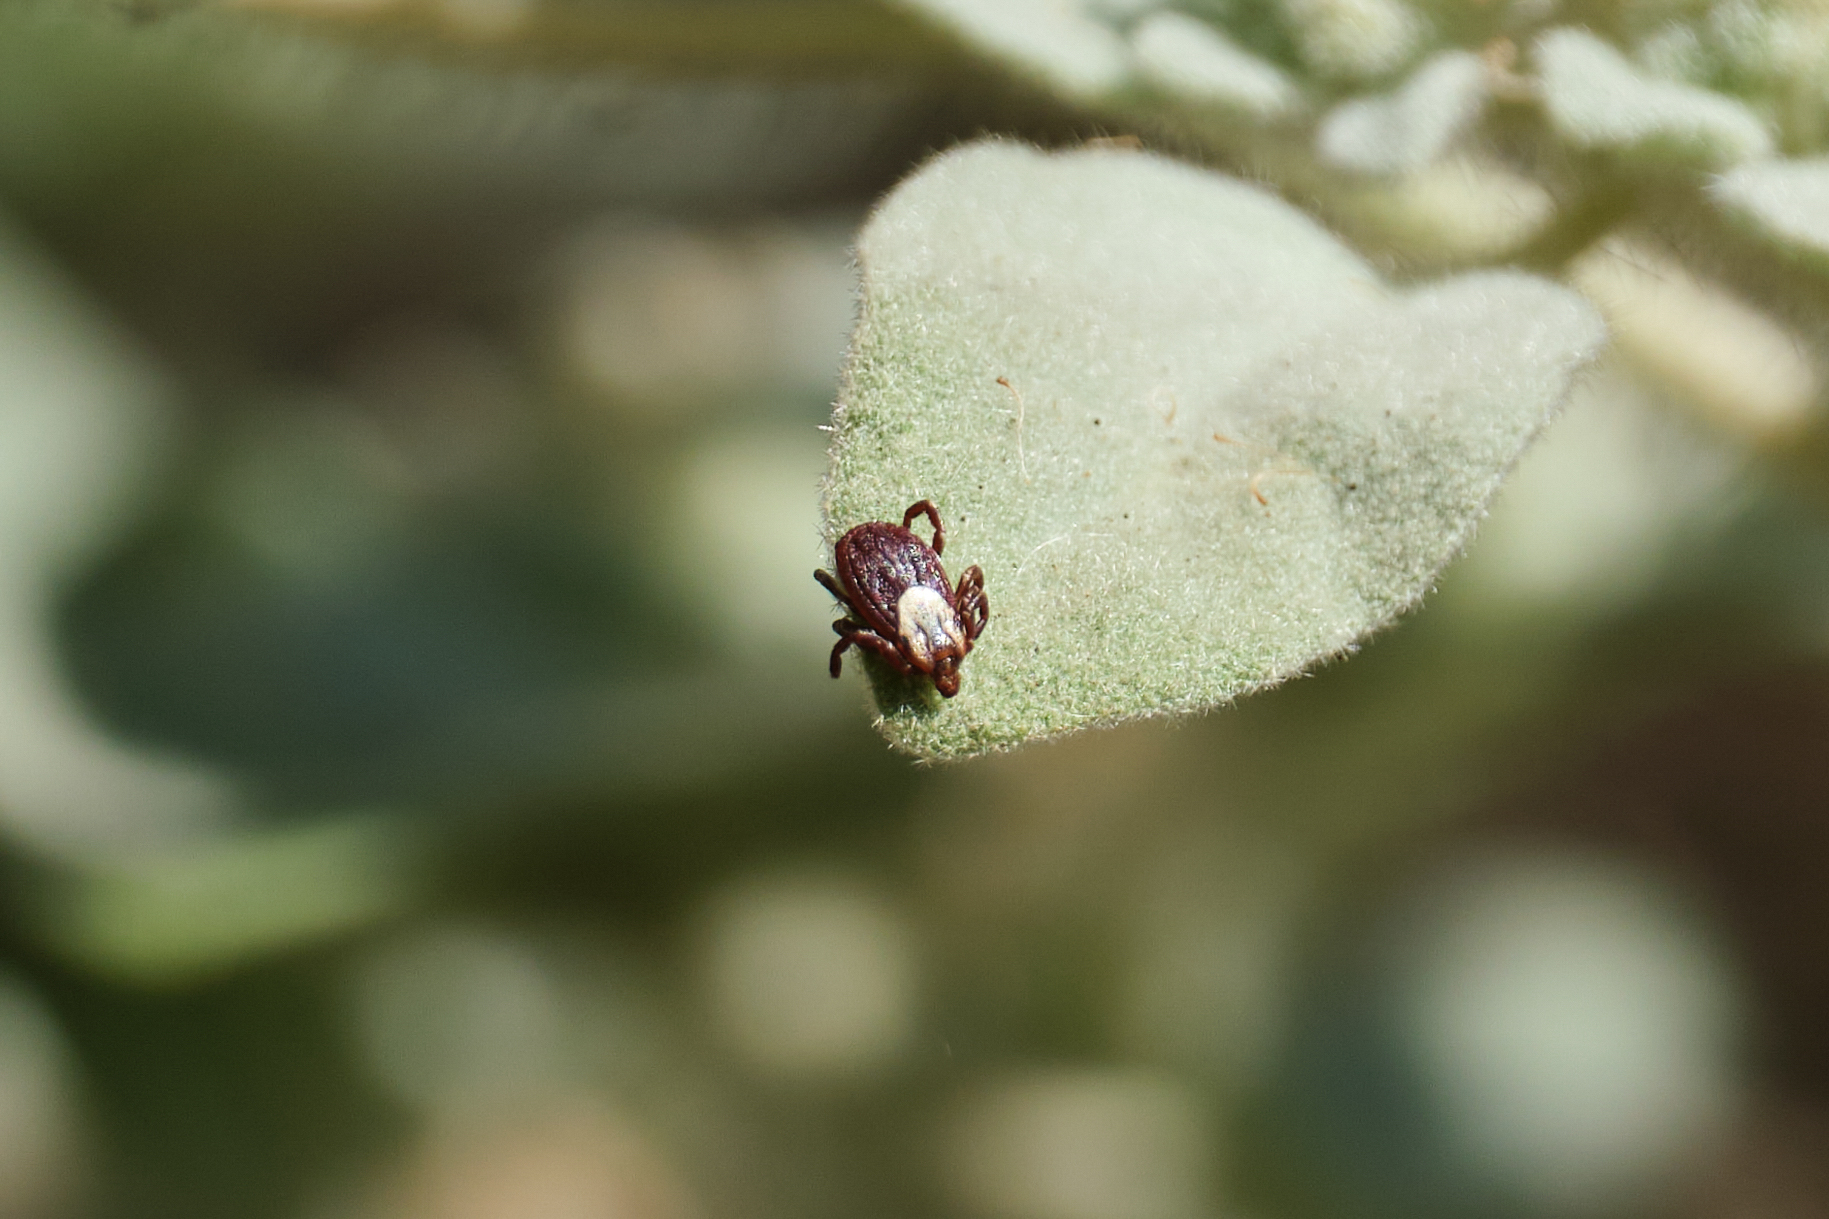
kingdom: Animalia
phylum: Arthropoda
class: Arachnida
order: Ixodida
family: Ixodidae
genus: Dermacentor
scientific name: Dermacentor occidentalis
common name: Net tick
